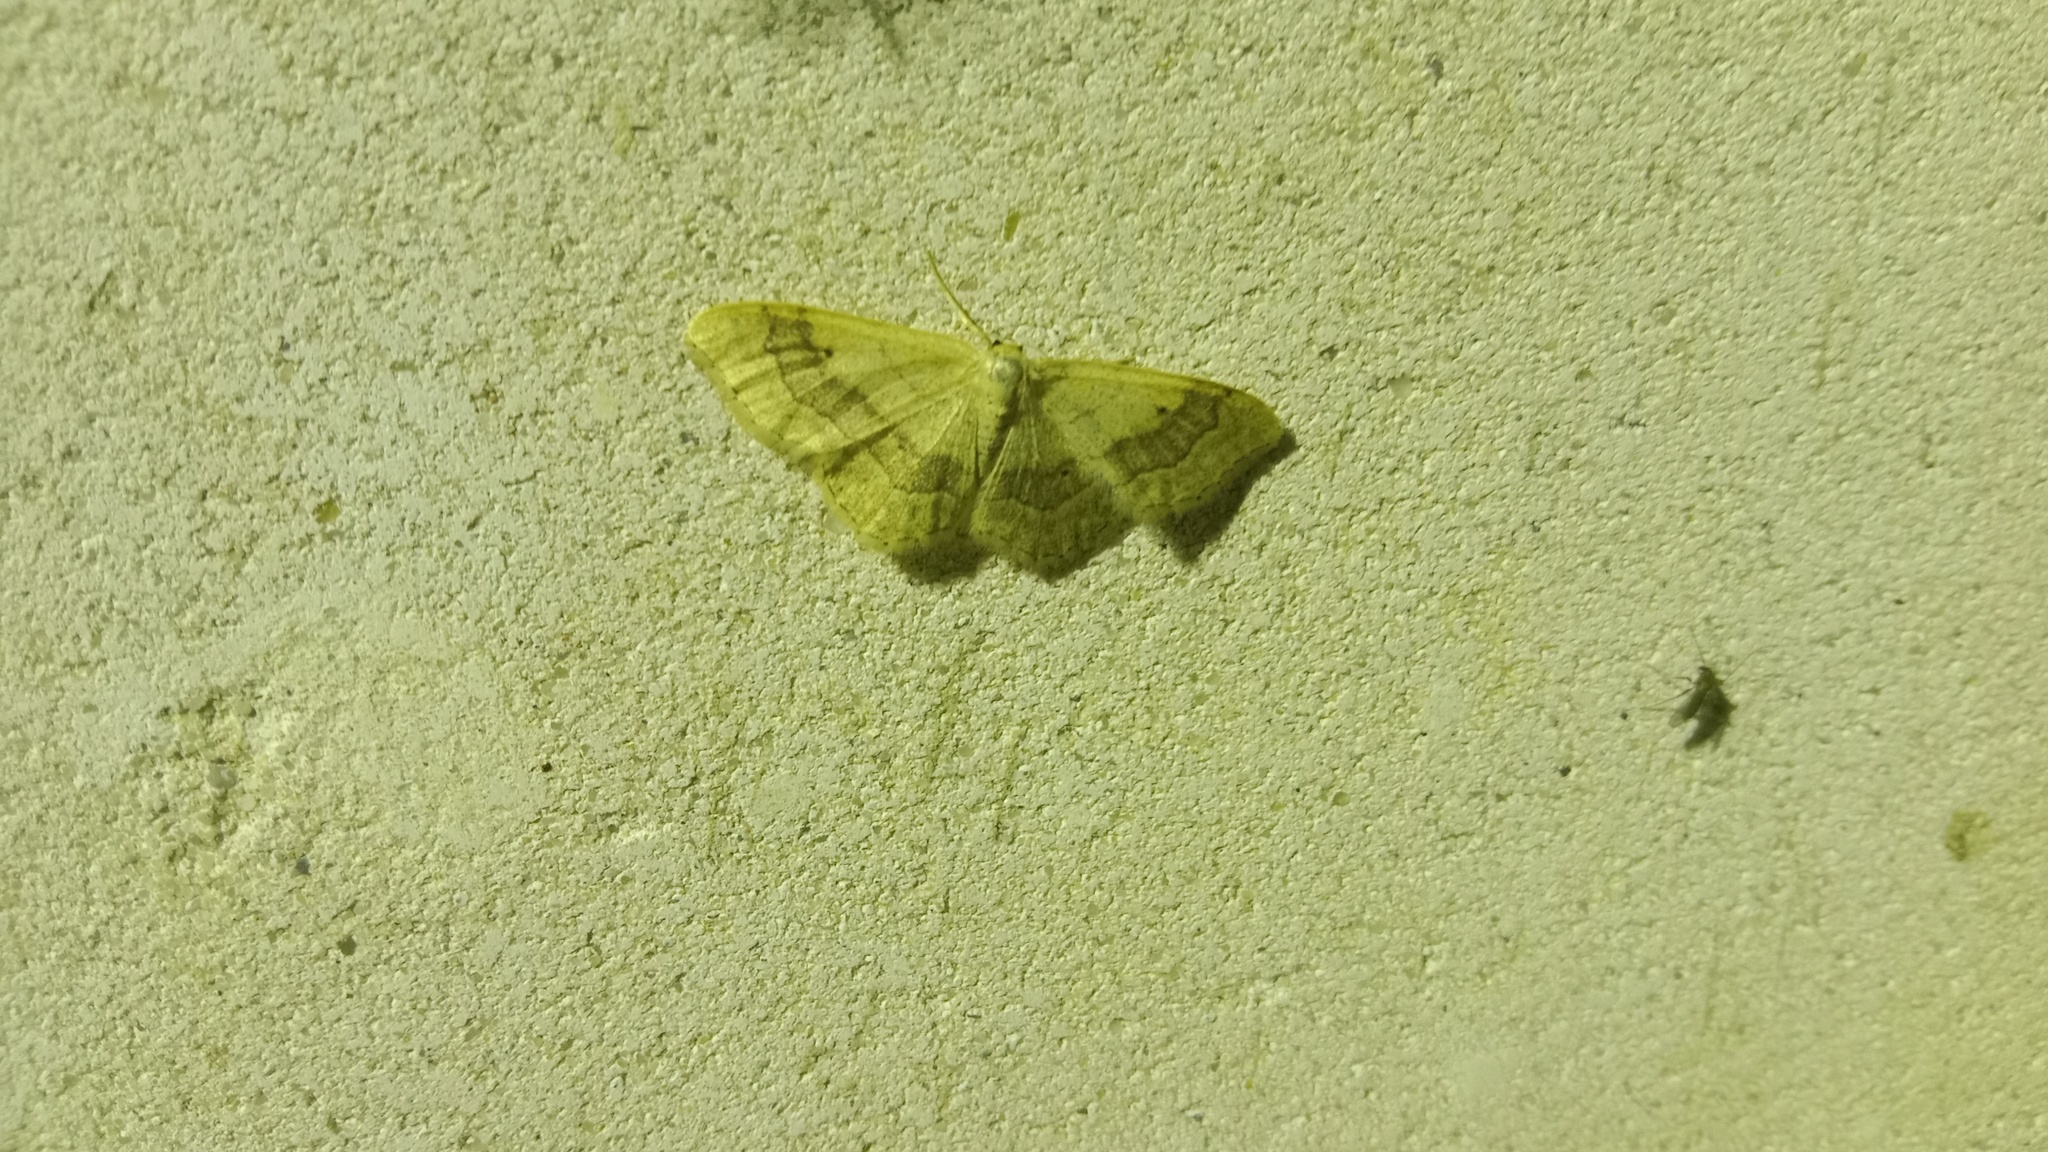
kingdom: Animalia
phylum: Arthropoda
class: Insecta
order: Lepidoptera
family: Geometridae
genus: Idaea
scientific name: Idaea aversata
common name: Riband wave
